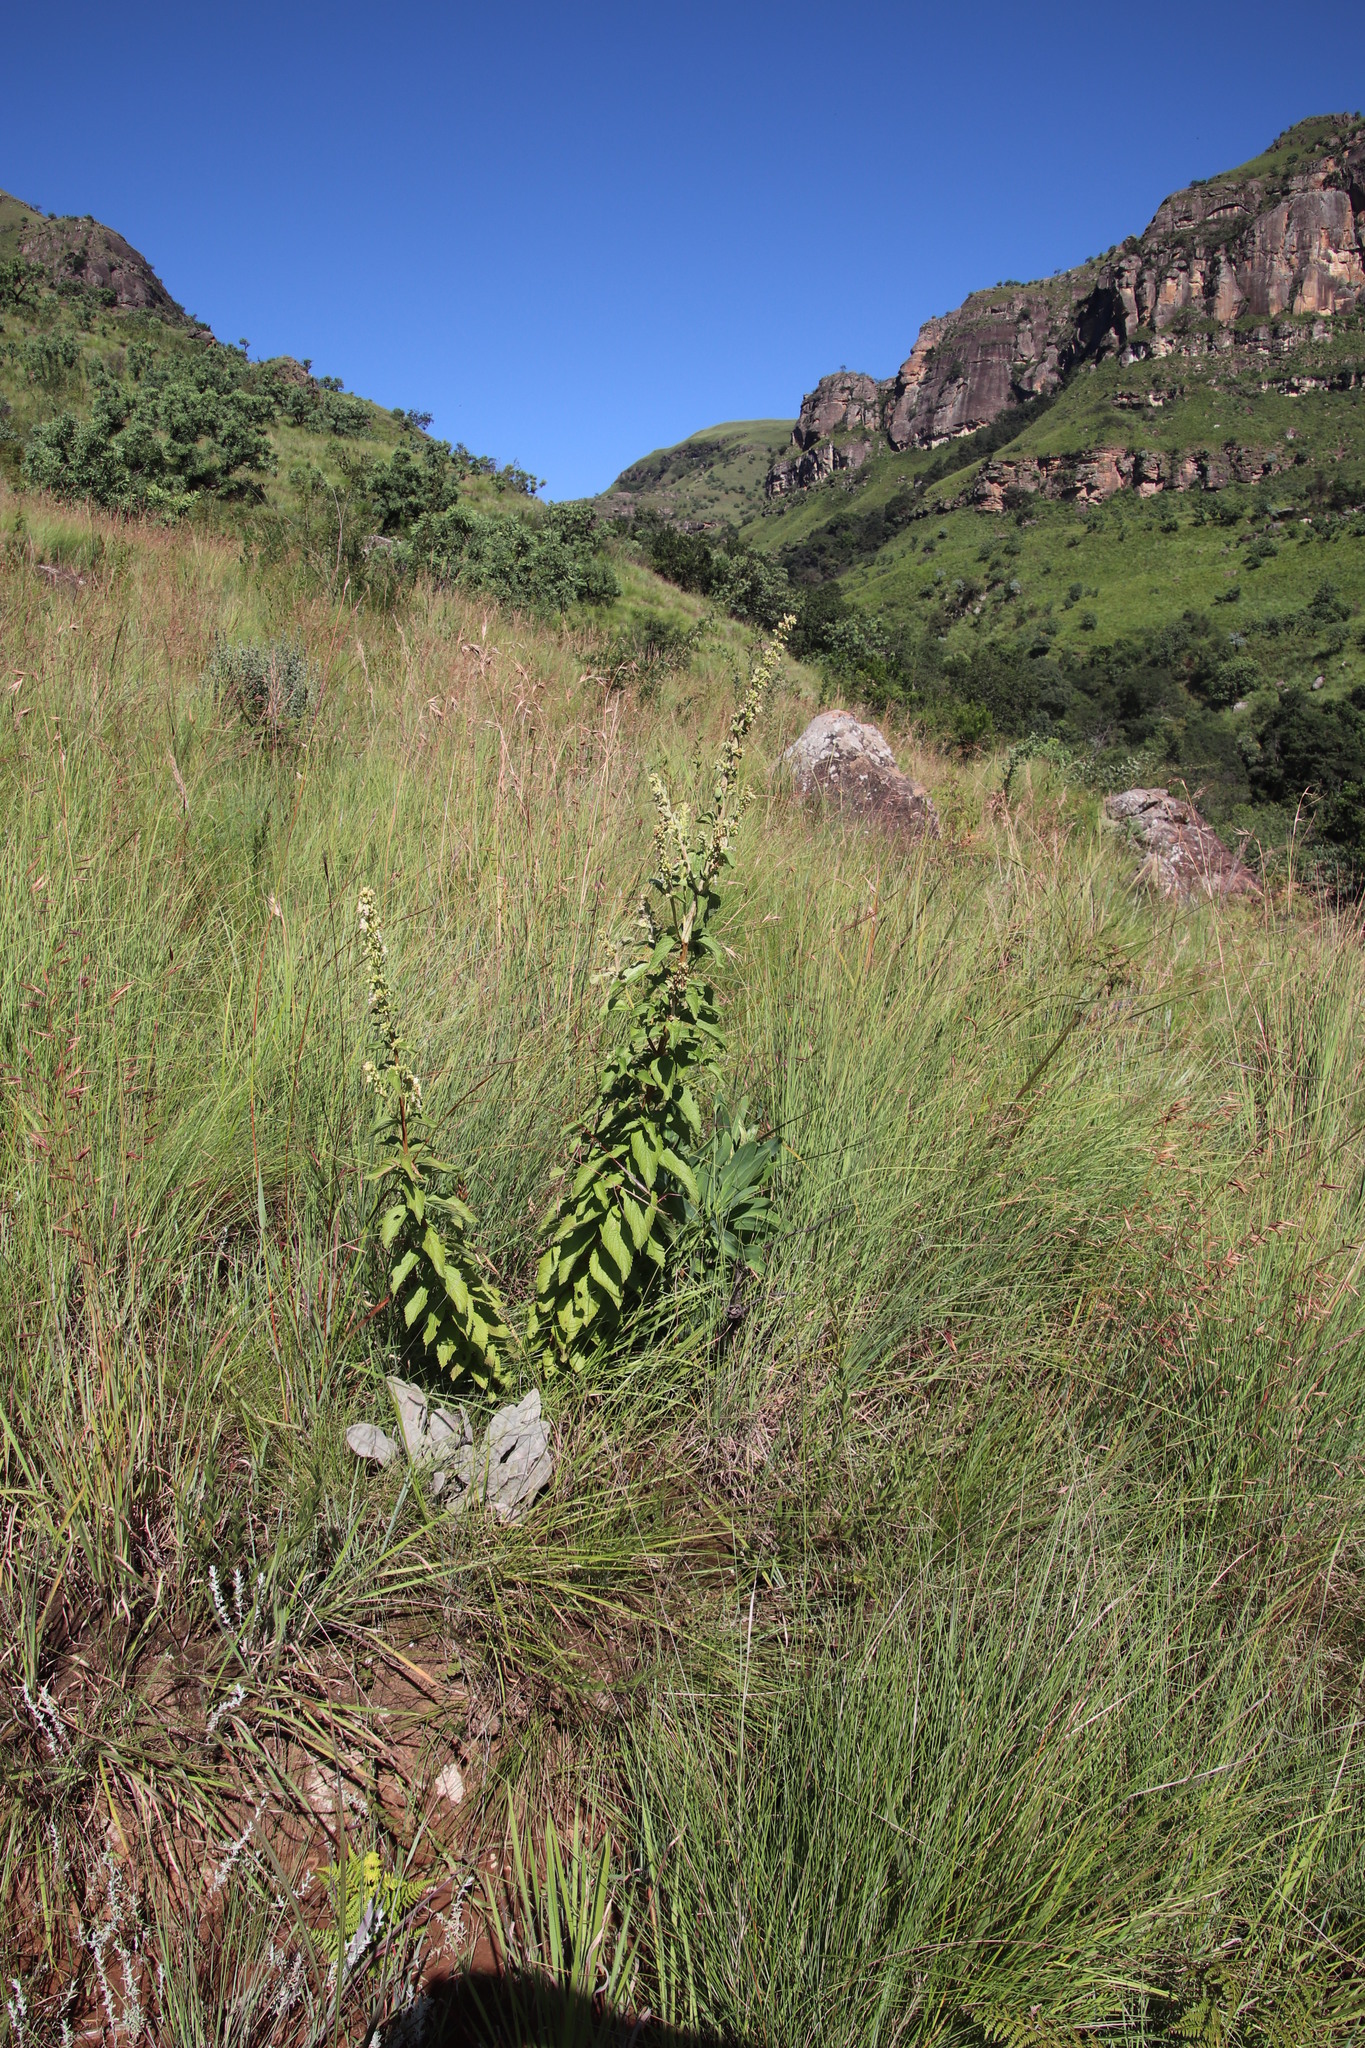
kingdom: Plantae
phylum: Tracheophyta
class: Magnoliopsida
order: Lamiales
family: Lamiaceae
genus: Coleus
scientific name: Coleus calycinus
